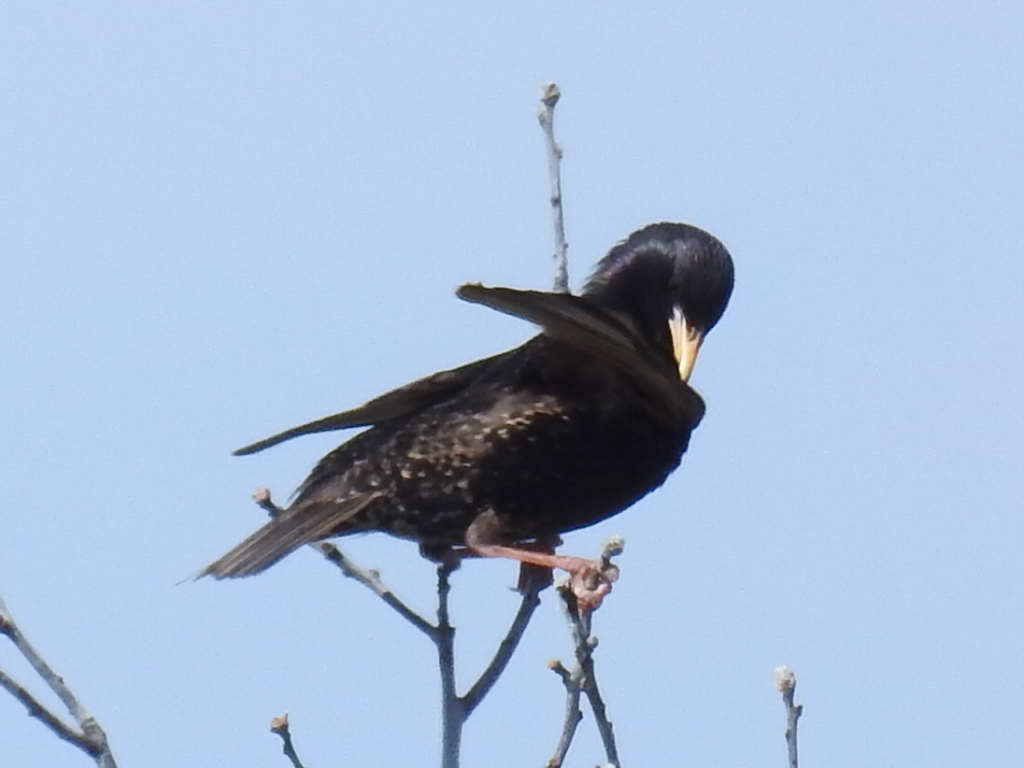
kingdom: Animalia
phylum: Chordata
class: Aves
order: Passeriformes
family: Sturnidae
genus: Sturnus
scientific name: Sturnus vulgaris
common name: Common starling
